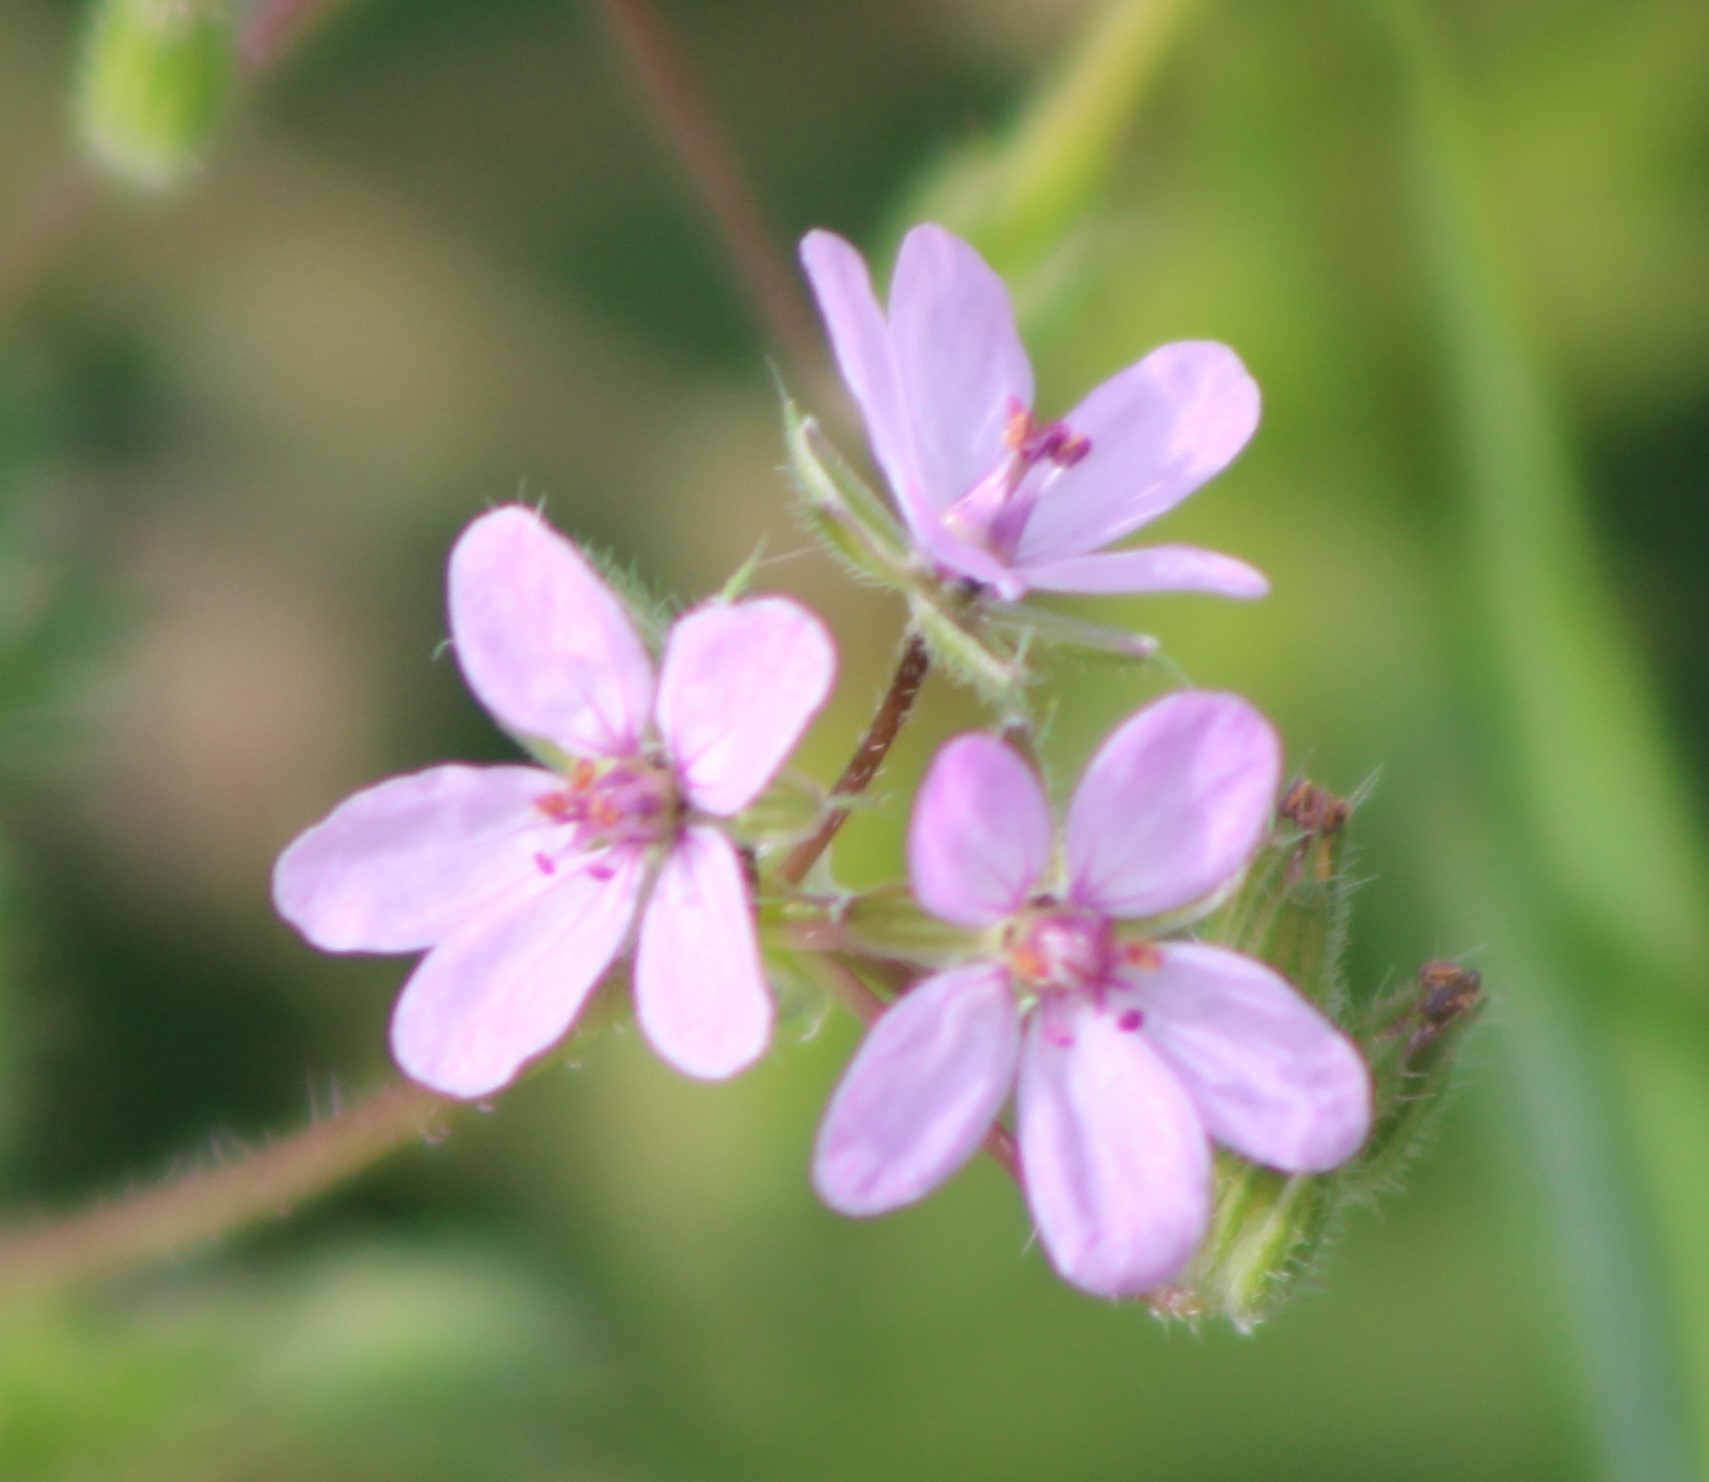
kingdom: Plantae
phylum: Tracheophyta
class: Magnoliopsida
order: Geraniales
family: Geraniaceae
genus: Erodium
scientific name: Erodium cicutarium
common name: Common stork's-bill
